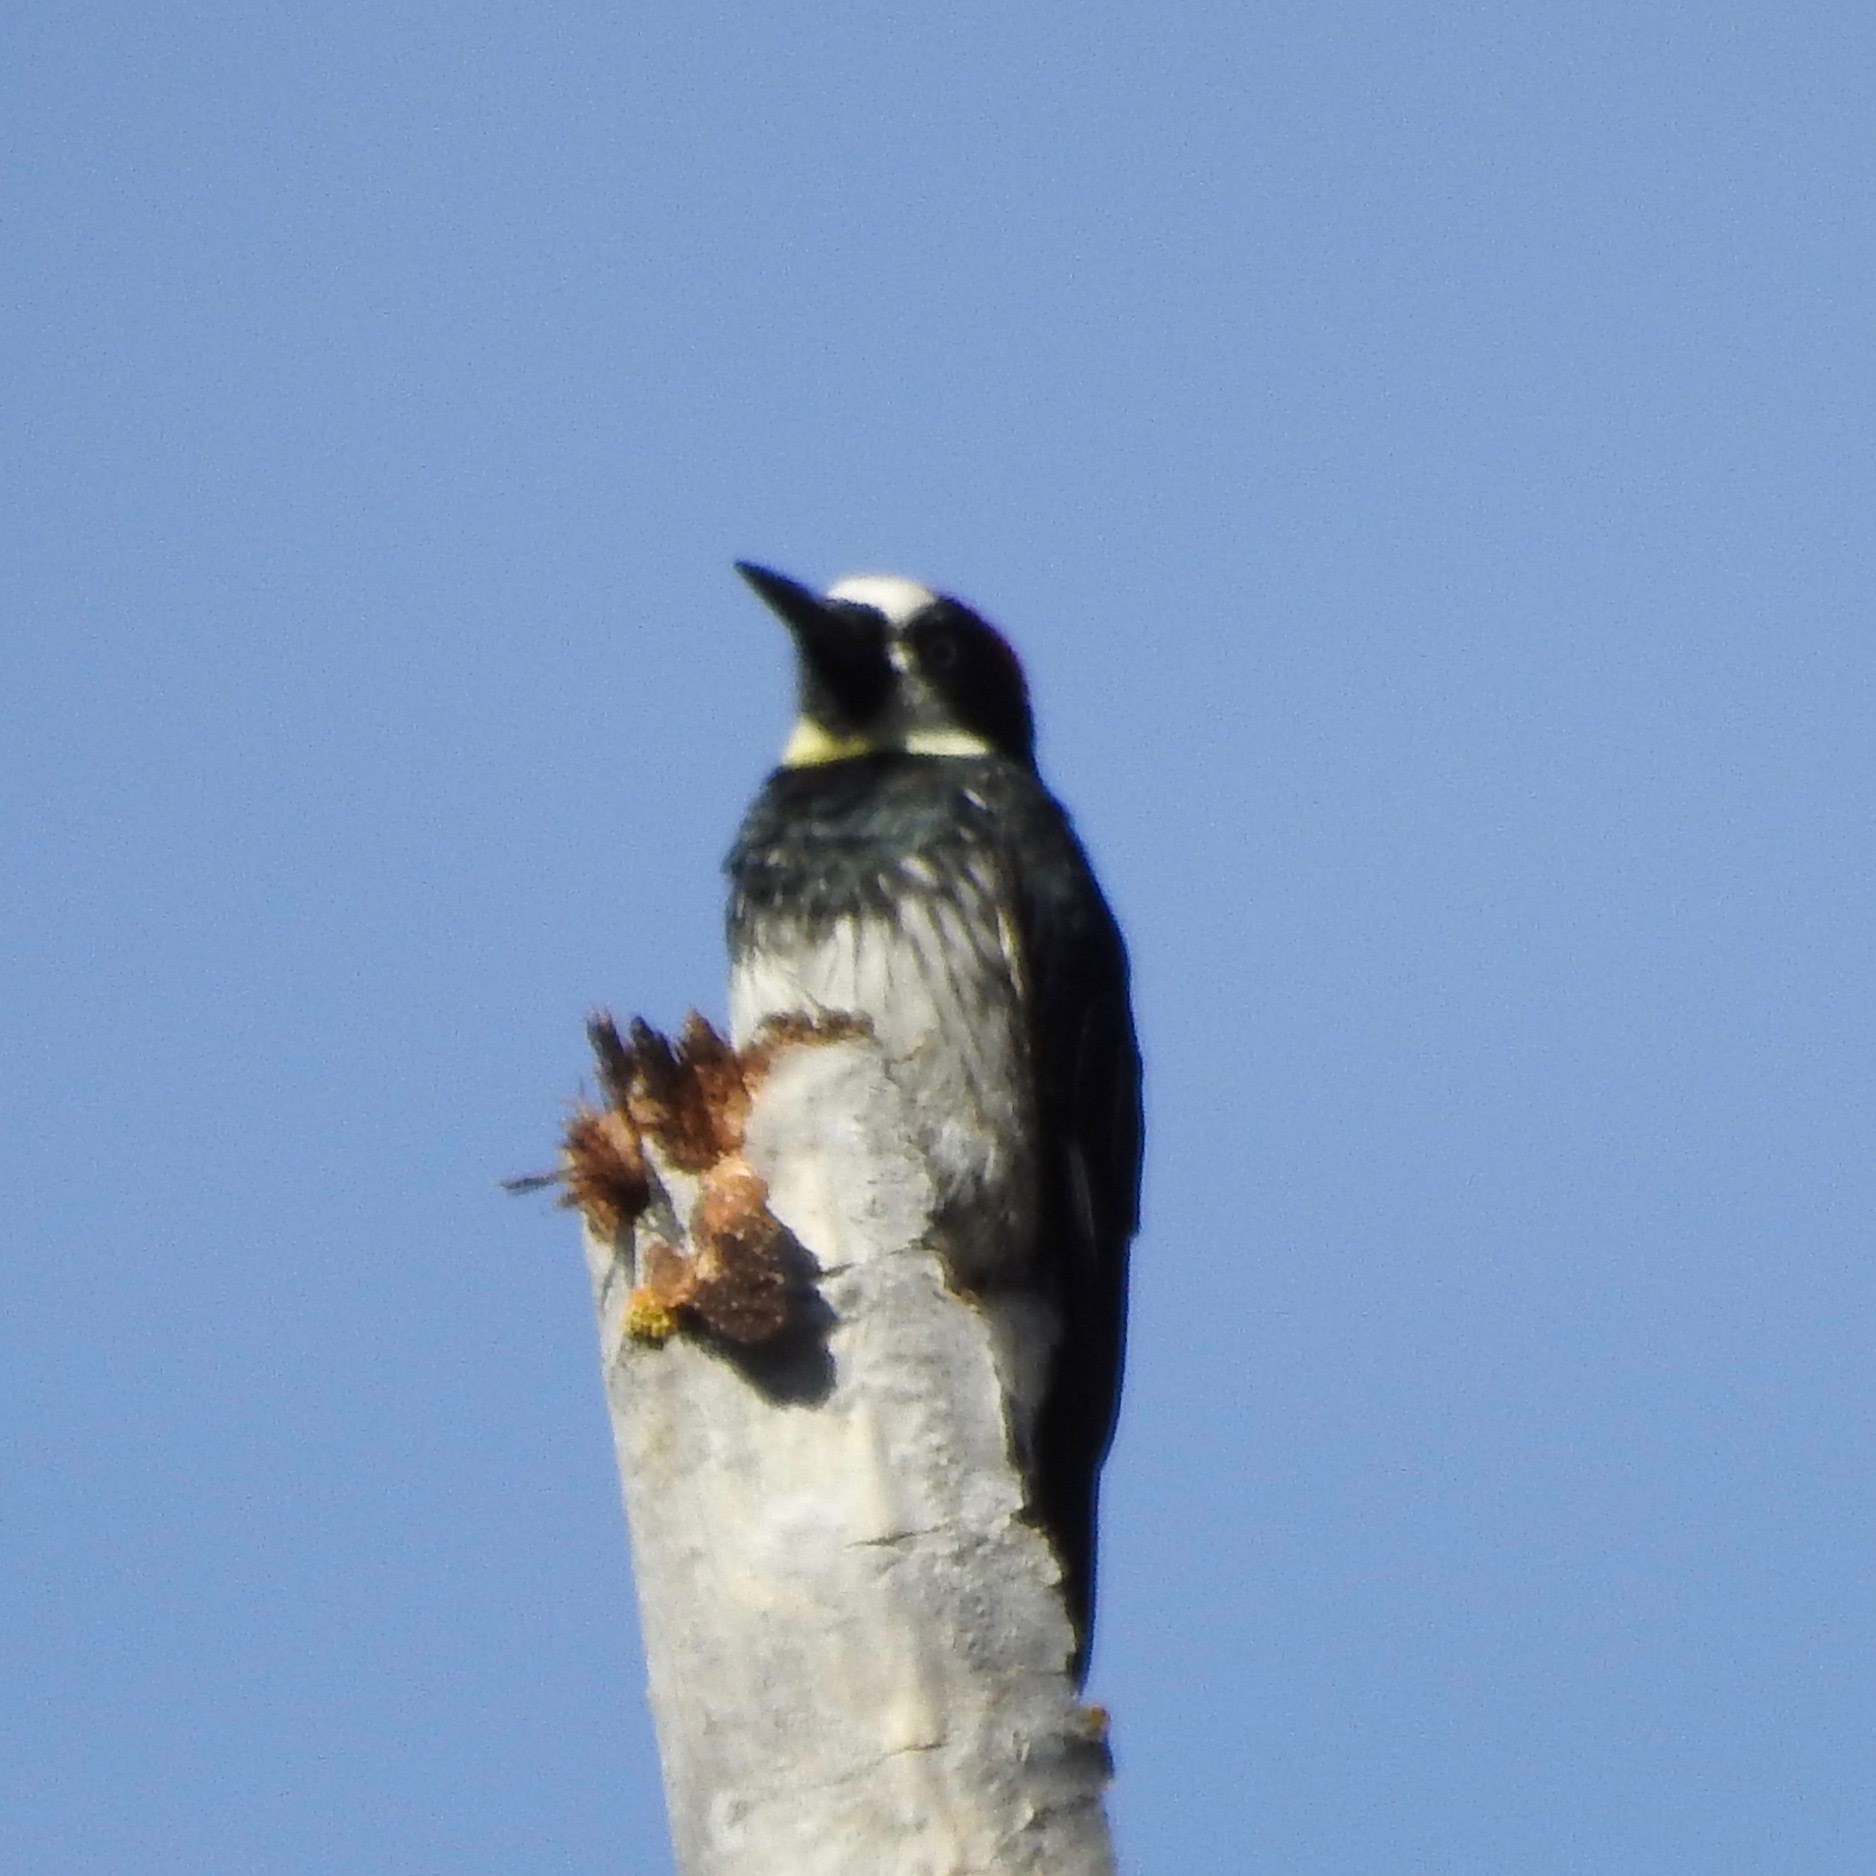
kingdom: Animalia
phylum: Chordata
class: Aves
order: Piciformes
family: Picidae
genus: Melanerpes
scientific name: Melanerpes formicivorus
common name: Acorn woodpecker
